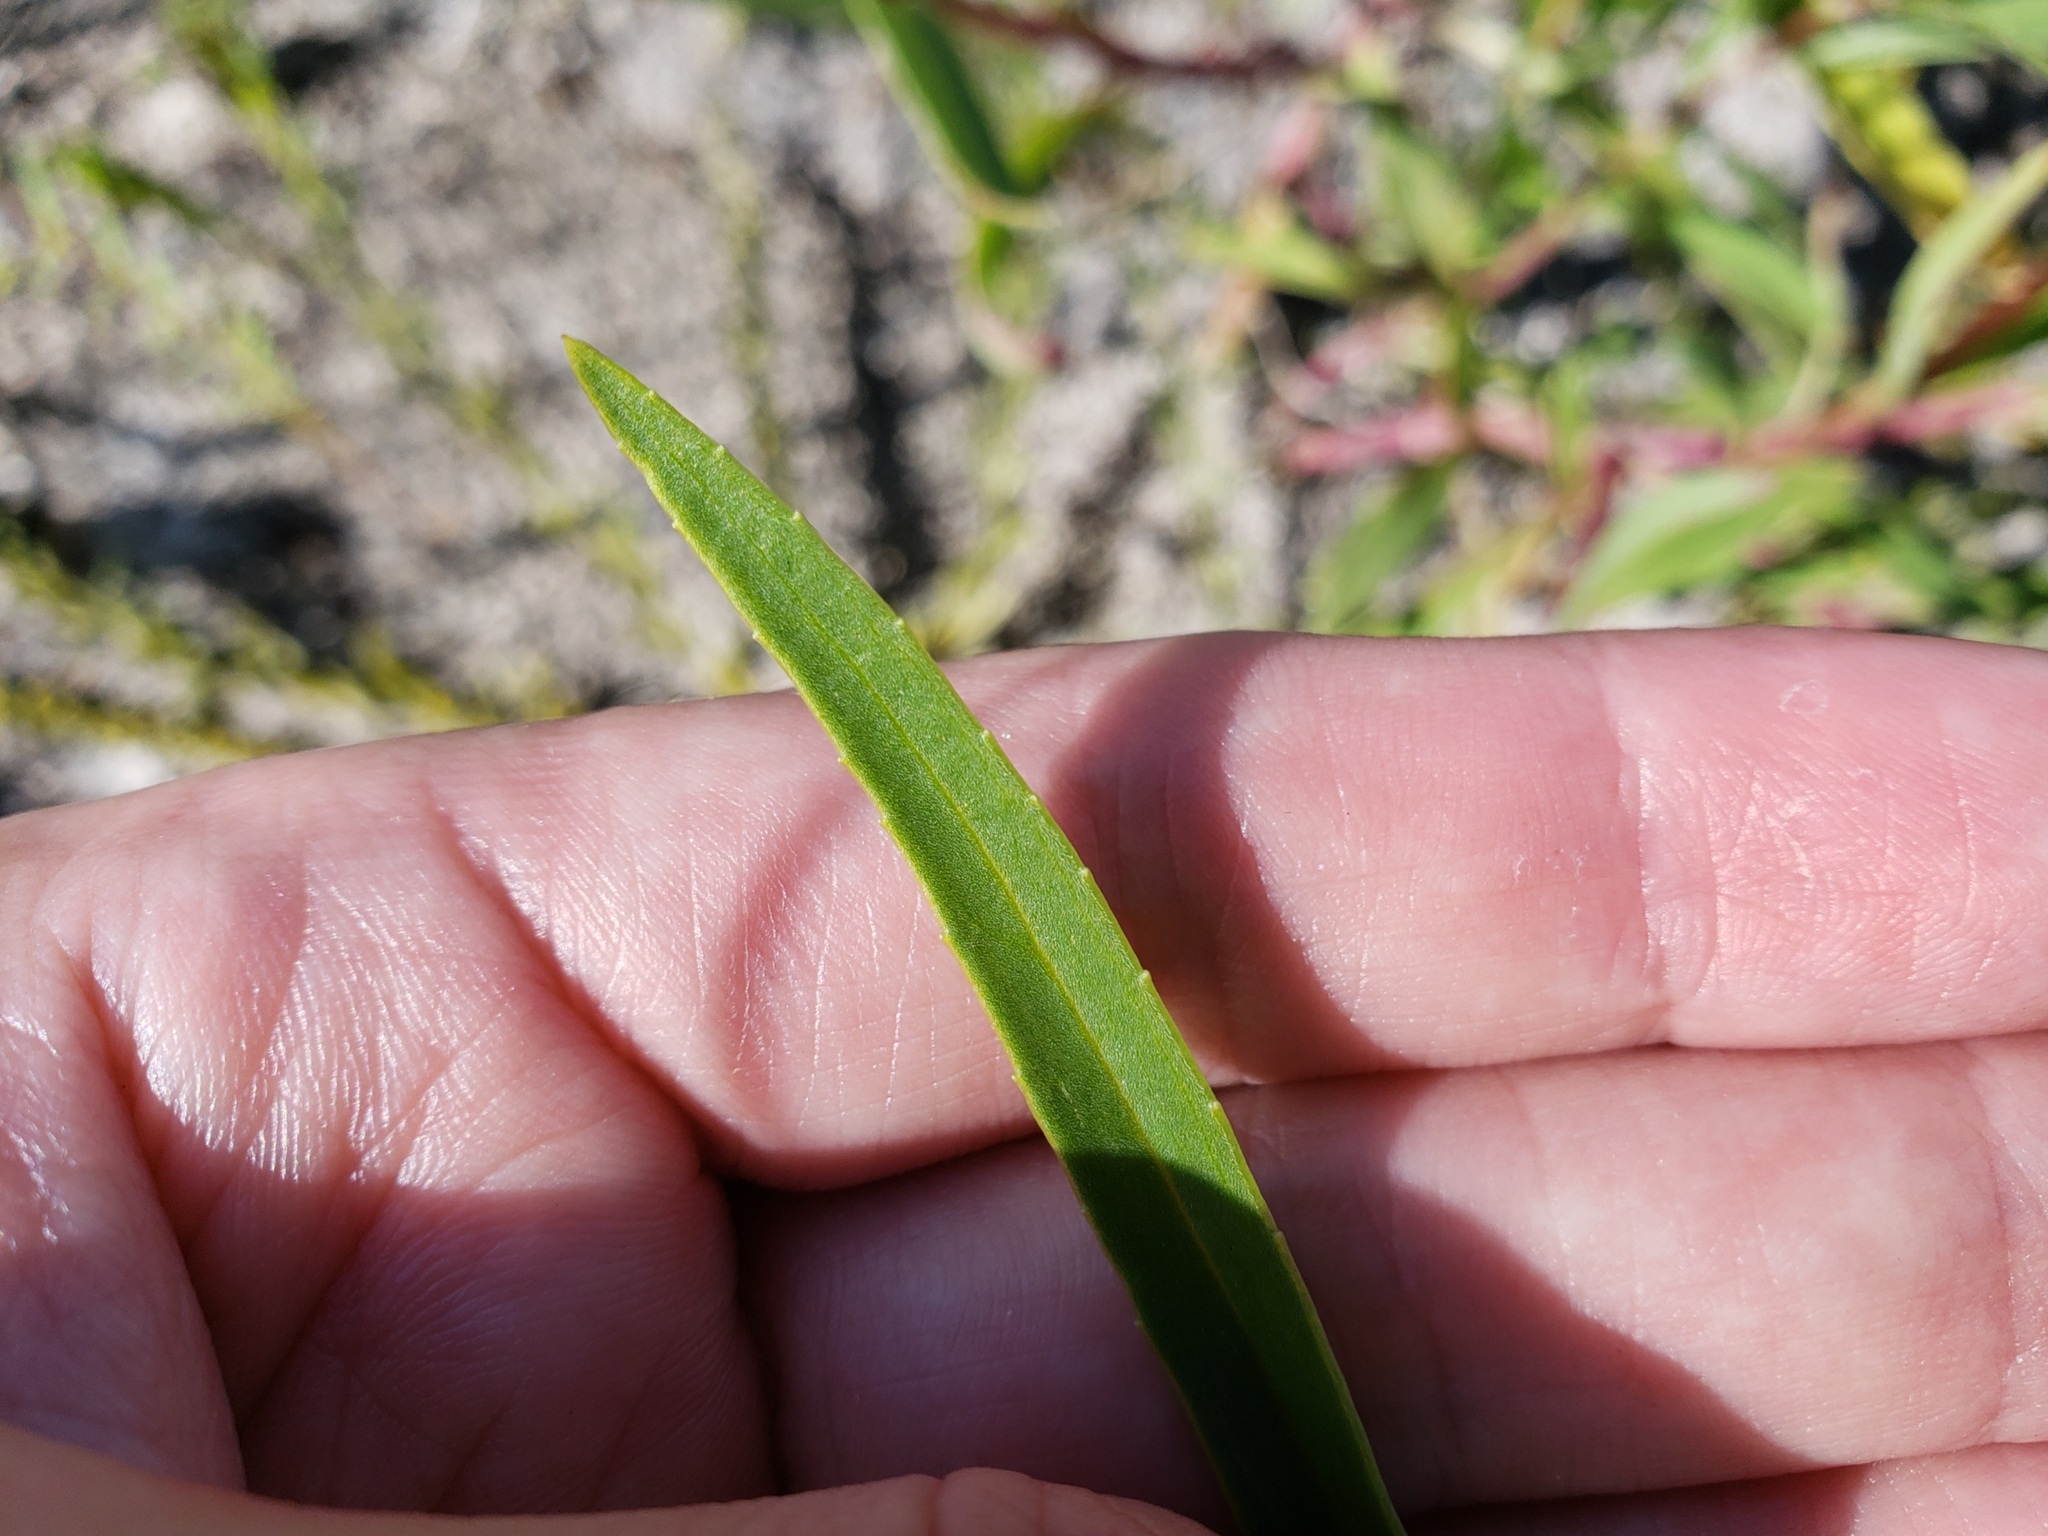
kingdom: Plantae
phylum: Tracheophyta
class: Magnoliopsida
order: Asterales
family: Asteraceae
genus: Flaveria
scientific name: Flaveria linearis
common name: Yellowtop
